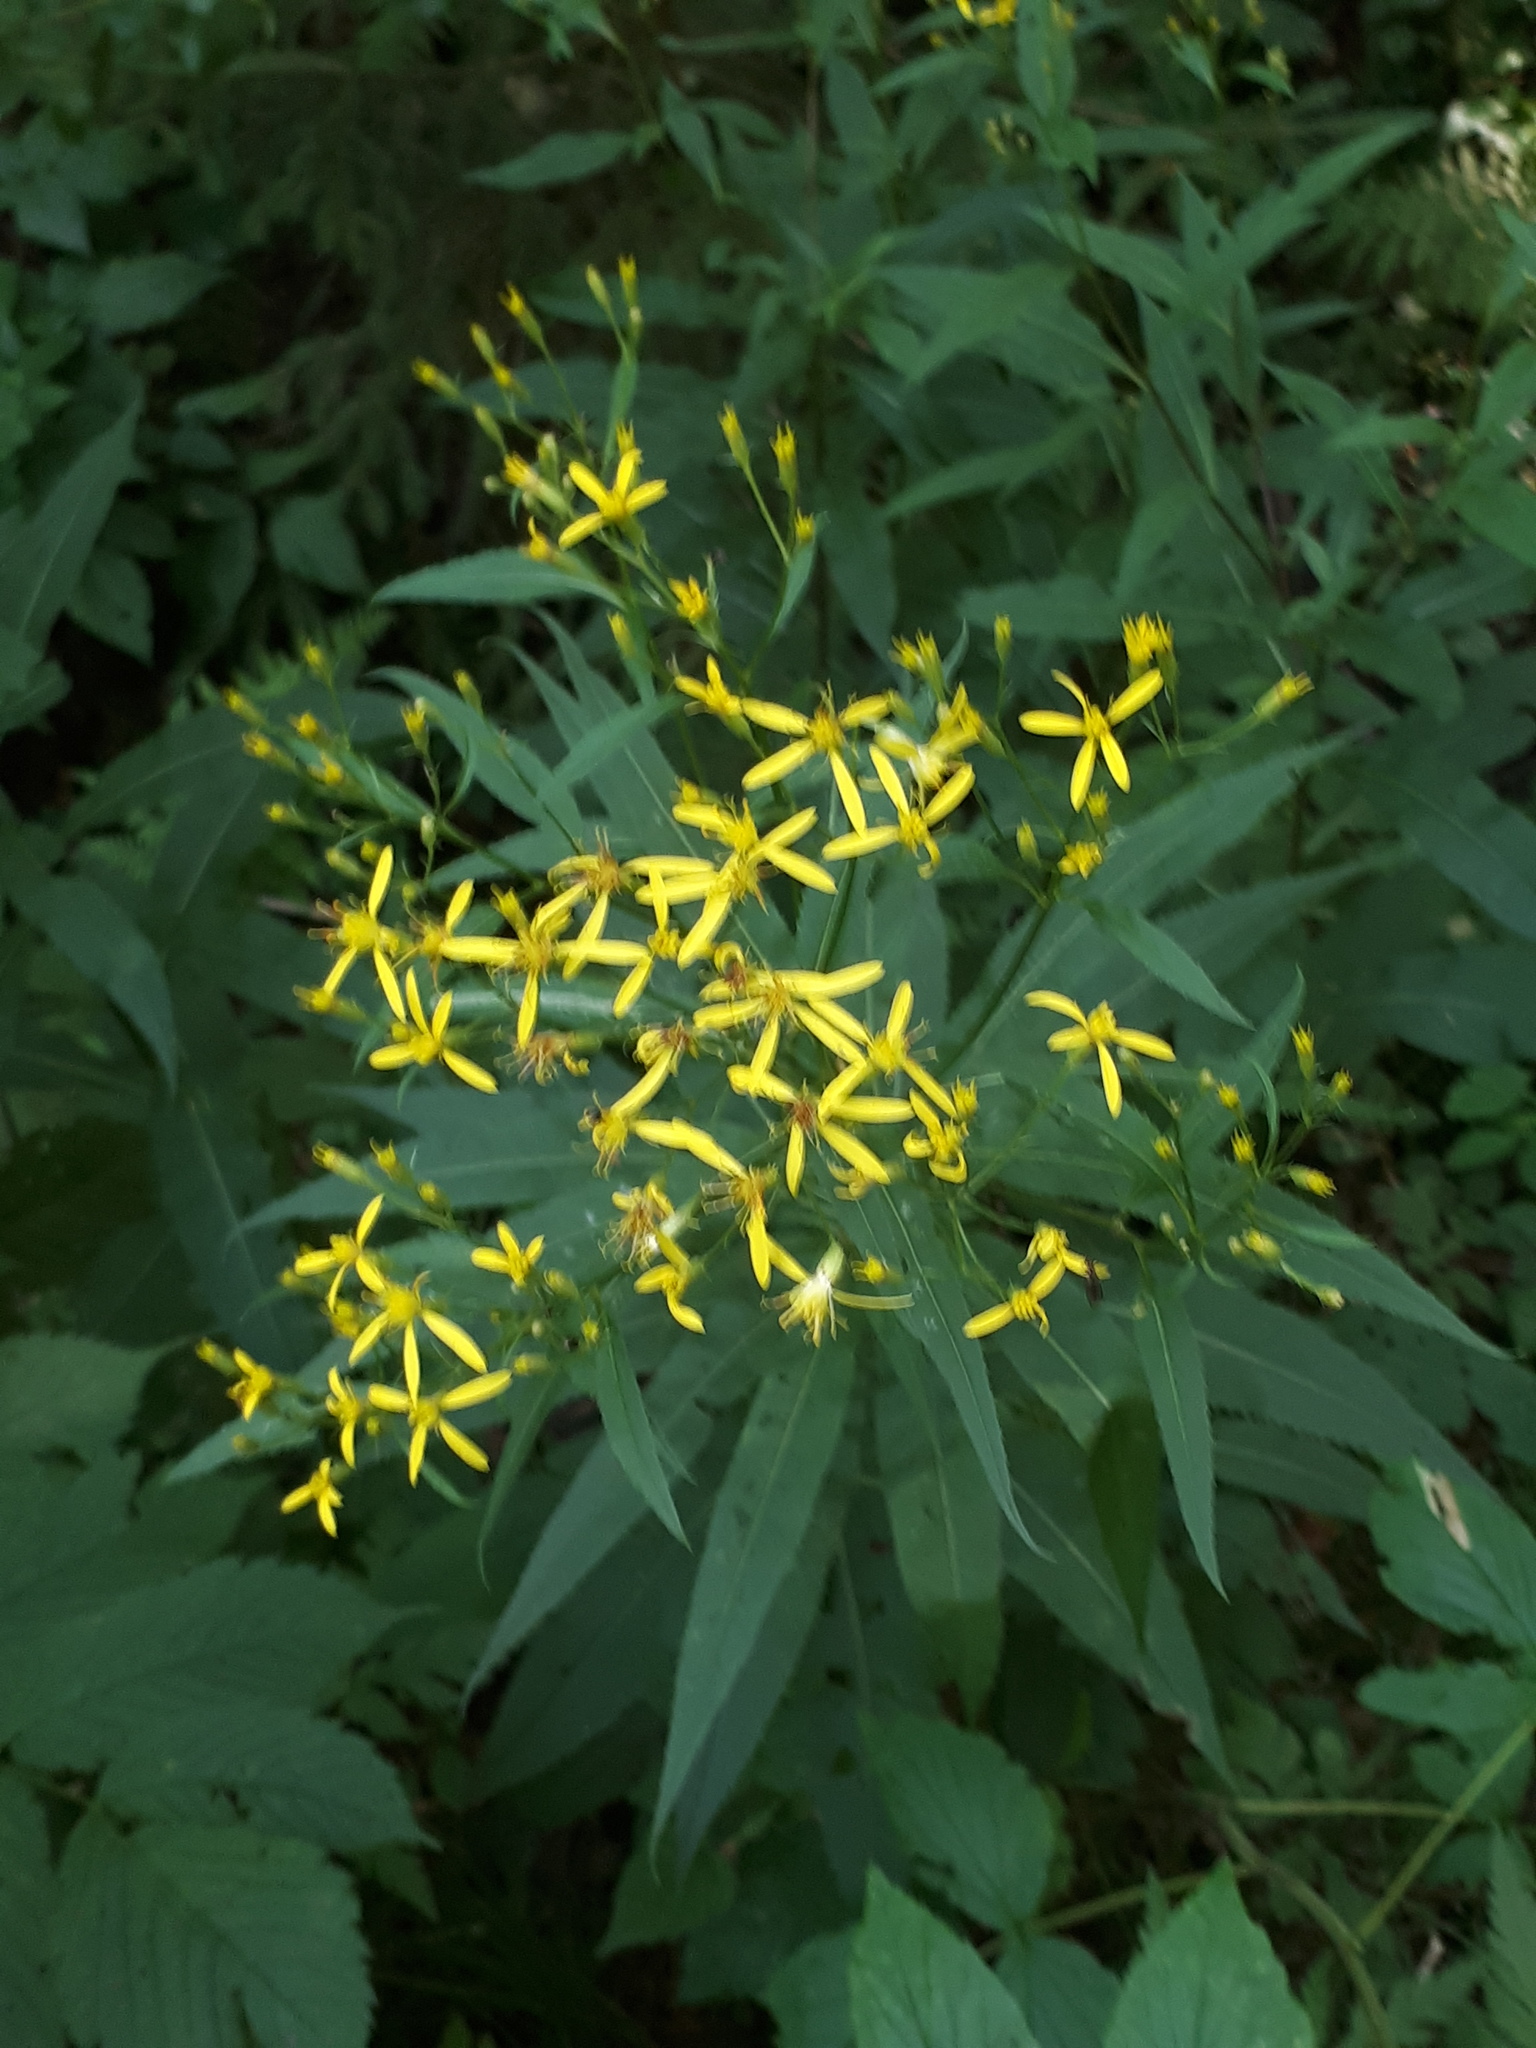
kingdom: Plantae
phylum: Tracheophyta
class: Magnoliopsida
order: Asterales
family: Asteraceae
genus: Senecio
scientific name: Senecio ovatus
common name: Wood ragwort
